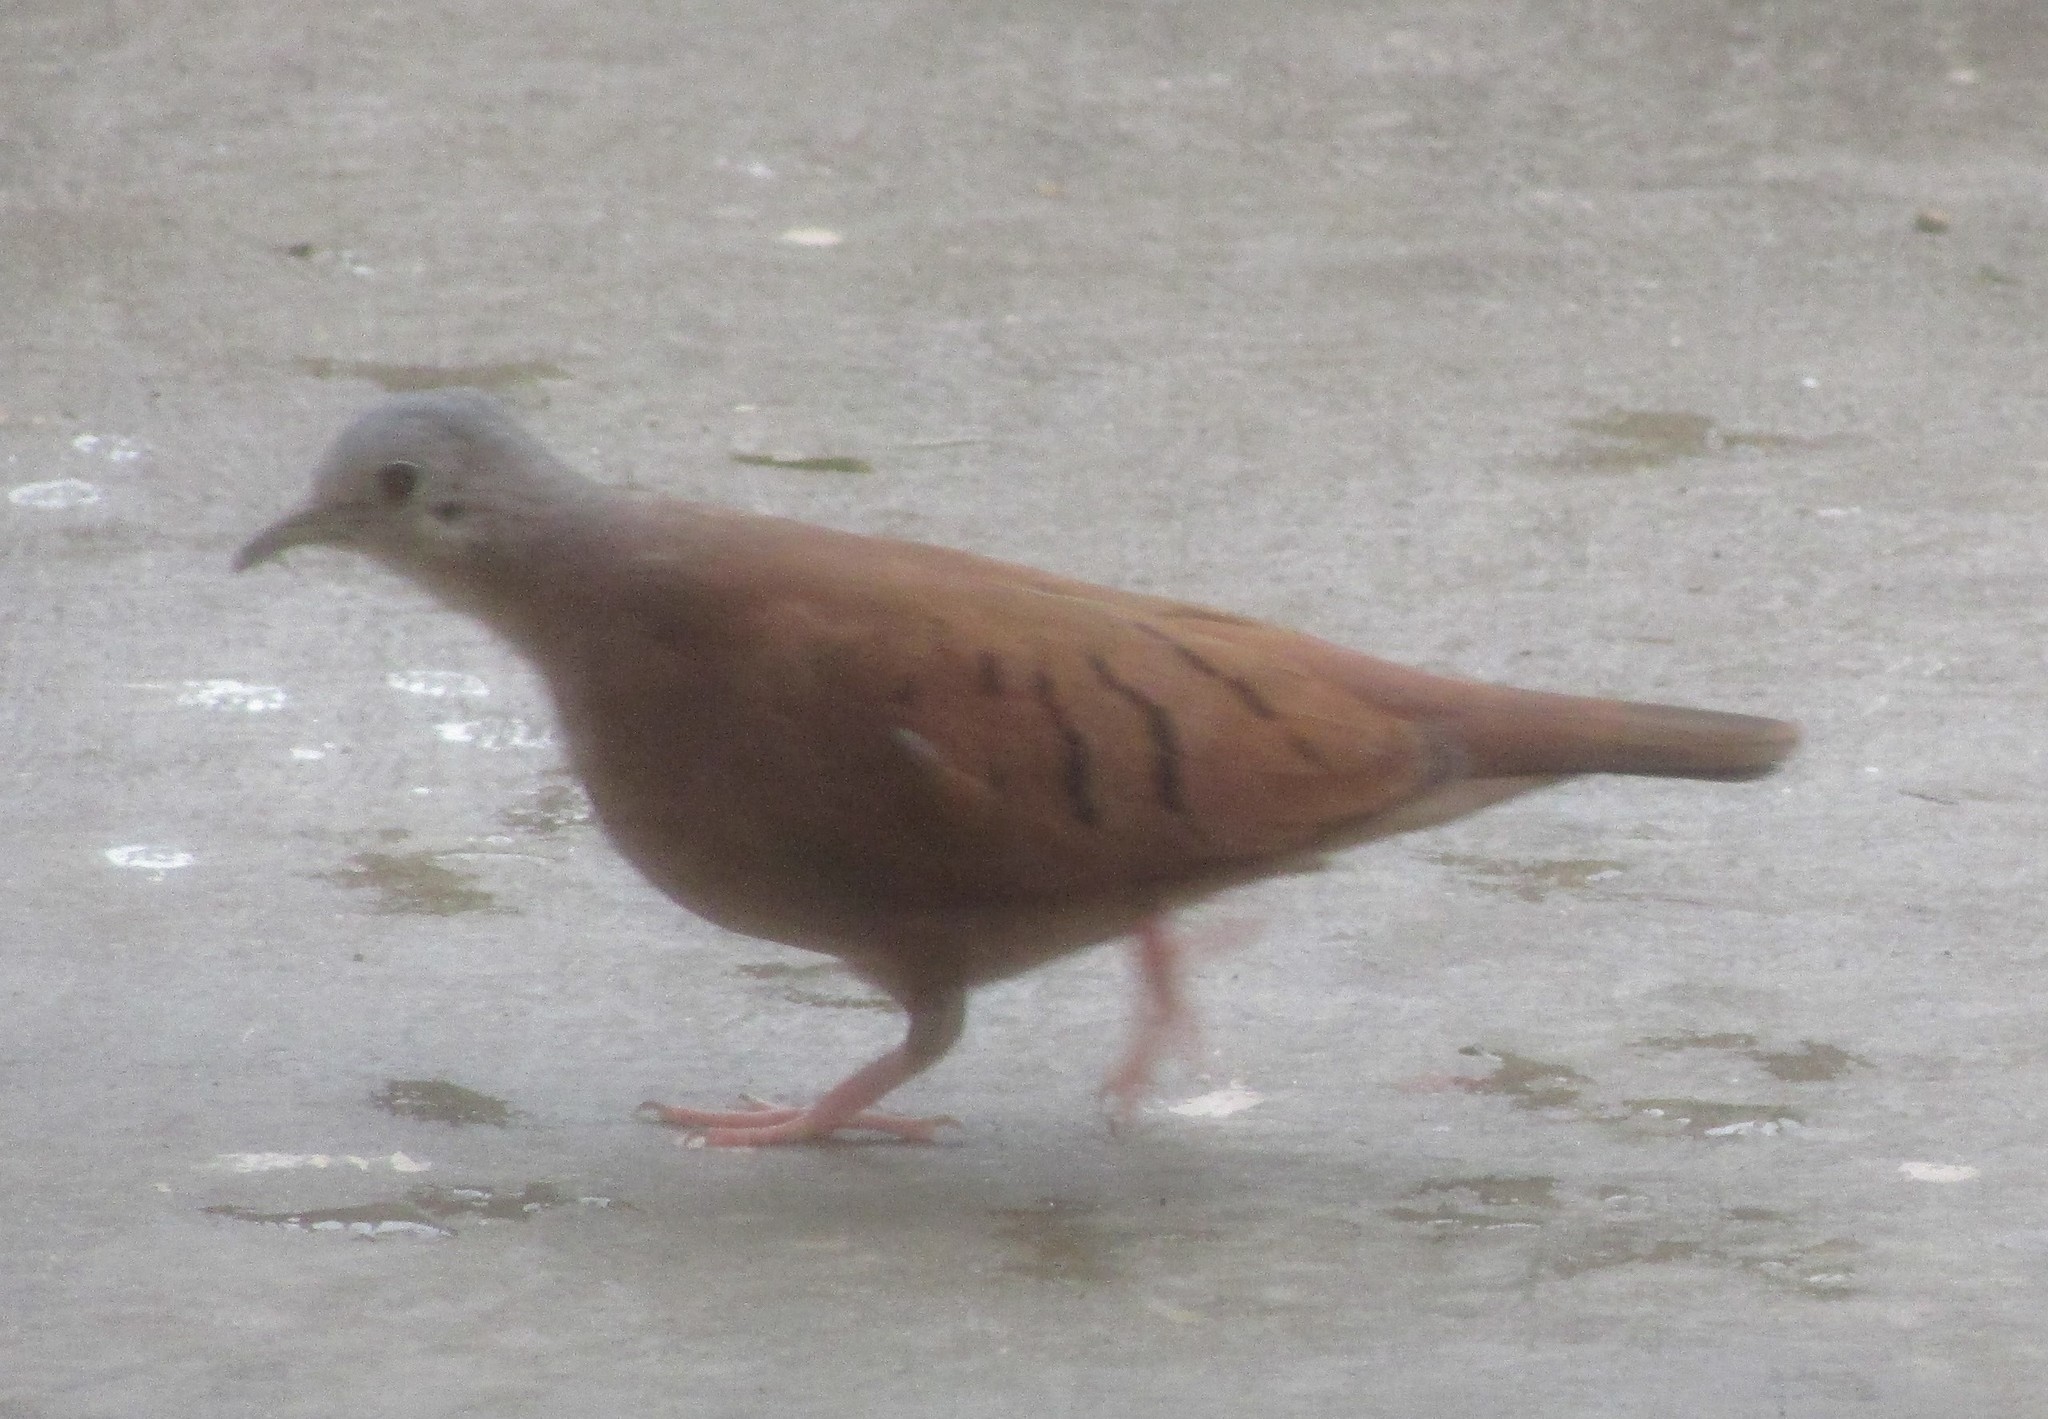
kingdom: Animalia
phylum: Chordata
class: Aves
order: Columbiformes
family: Columbidae
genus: Columbina
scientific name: Columbina talpacoti
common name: Ruddy ground dove
